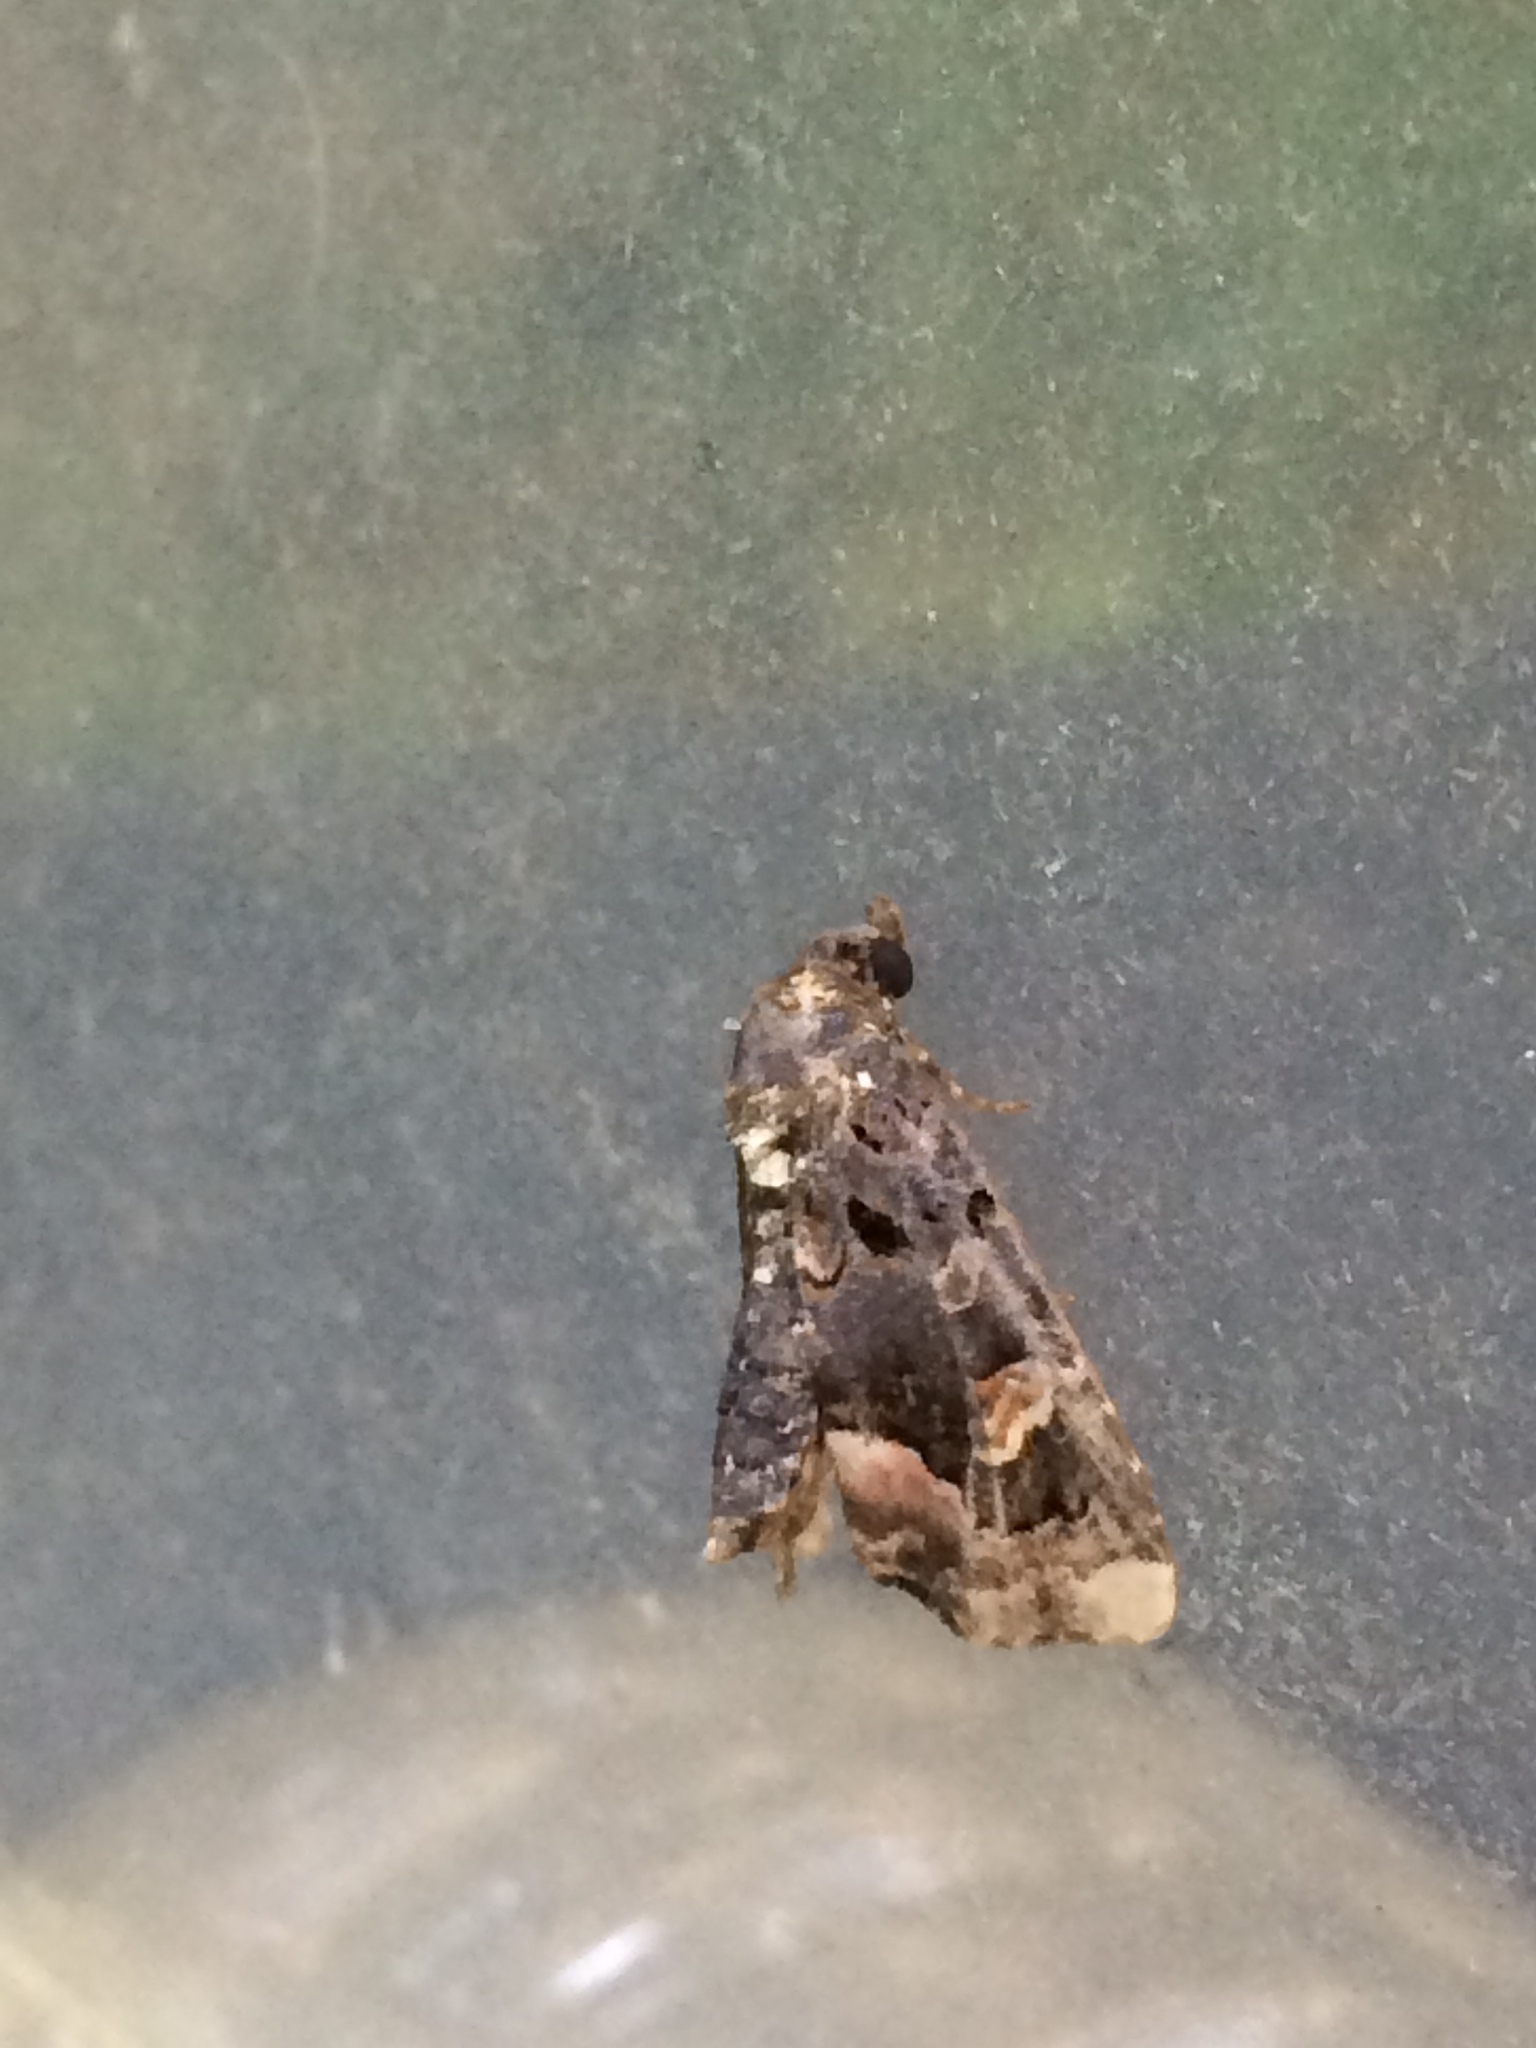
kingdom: Animalia
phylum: Arthropoda
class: Insecta
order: Lepidoptera
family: Noctuidae
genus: Homophoberia
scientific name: Homophoberia apicosa
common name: Black wedge-spot
